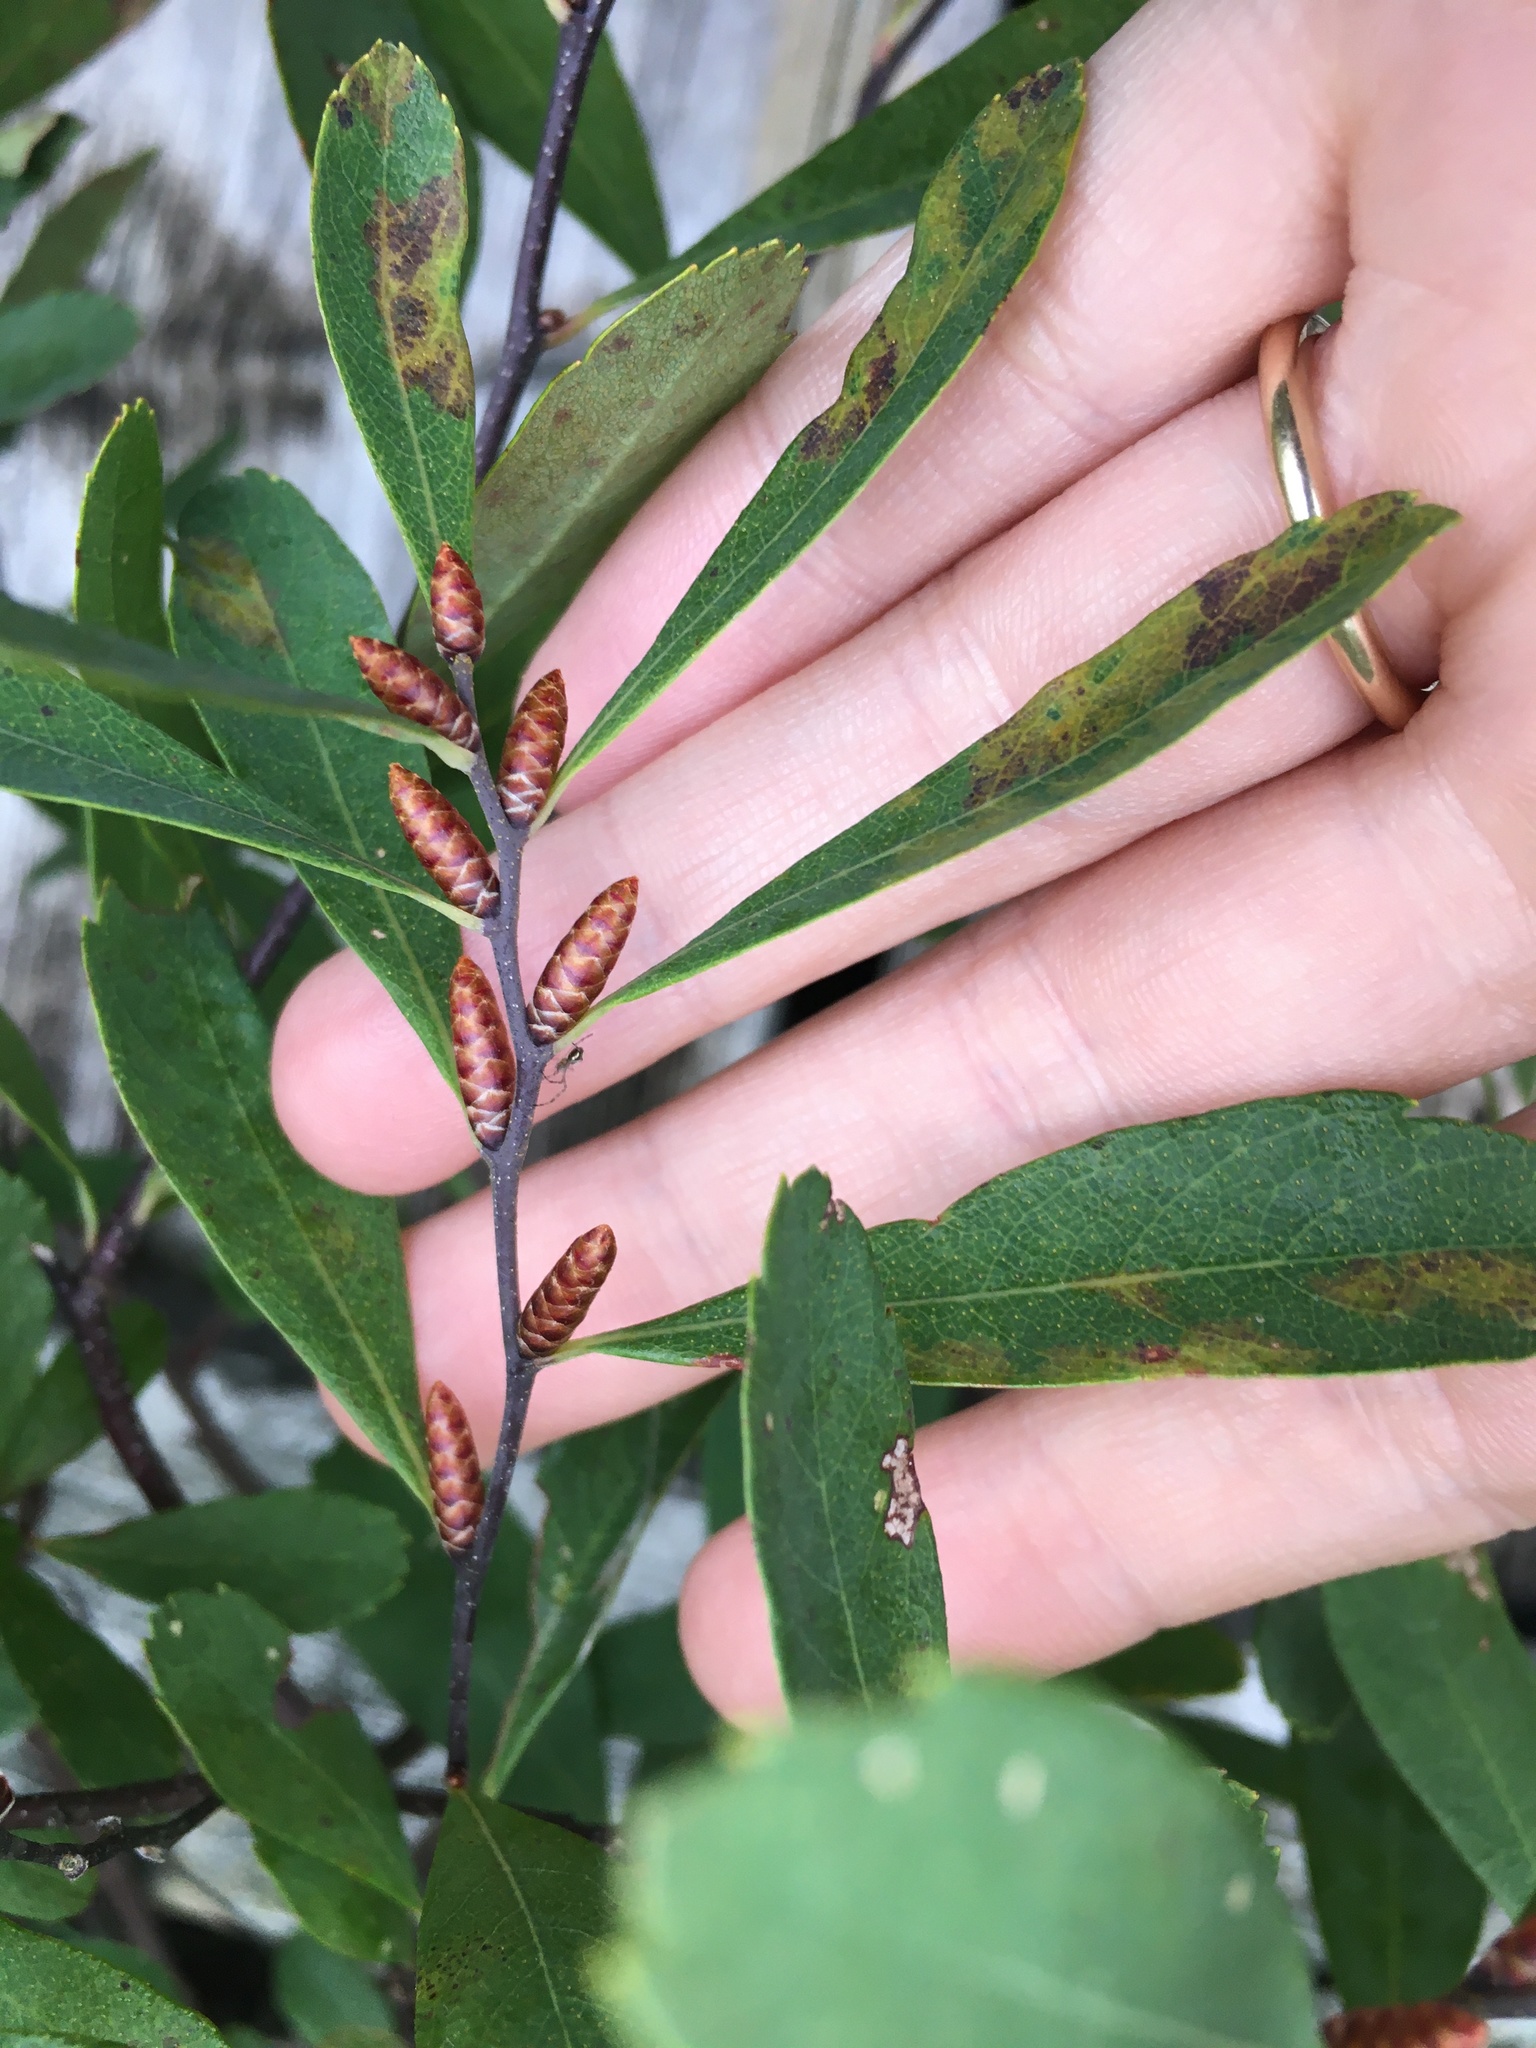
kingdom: Plantae
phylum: Tracheophyta
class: Magnoliopsida
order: Fagales
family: Myricaceae
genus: Myrica
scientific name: Myrica gale
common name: Sweet gale
